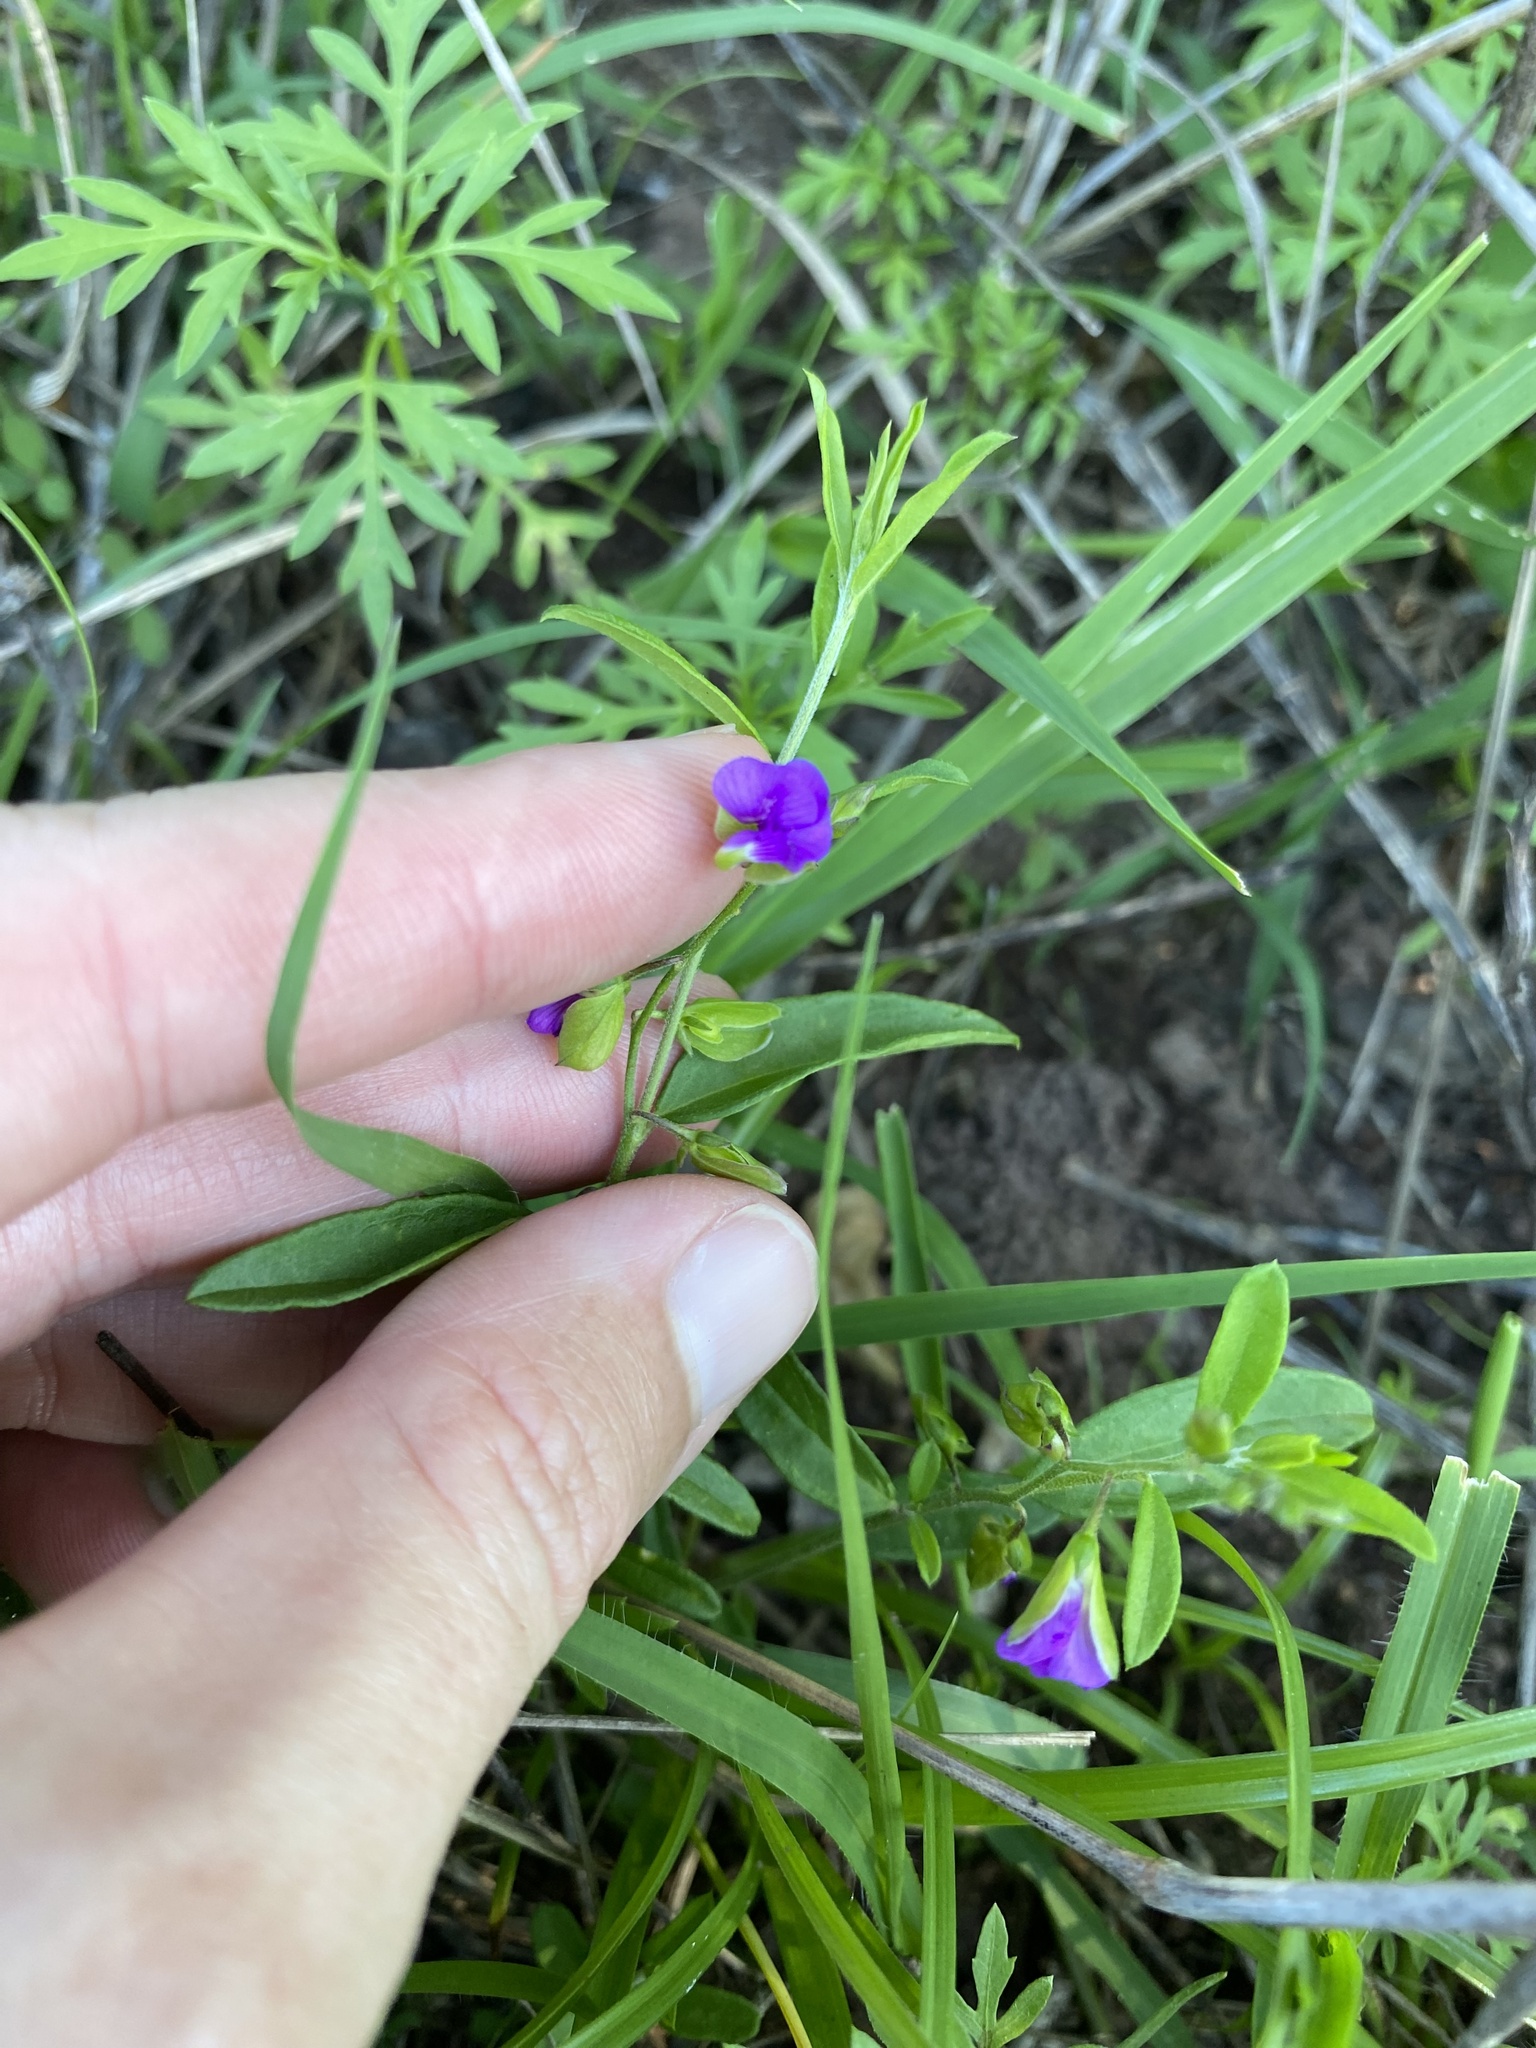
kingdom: Plantae
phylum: Tracheophyta
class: Magnoliopsida
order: Fabales
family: Polygalaceae
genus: Polygala
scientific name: Polygala serpentaria
